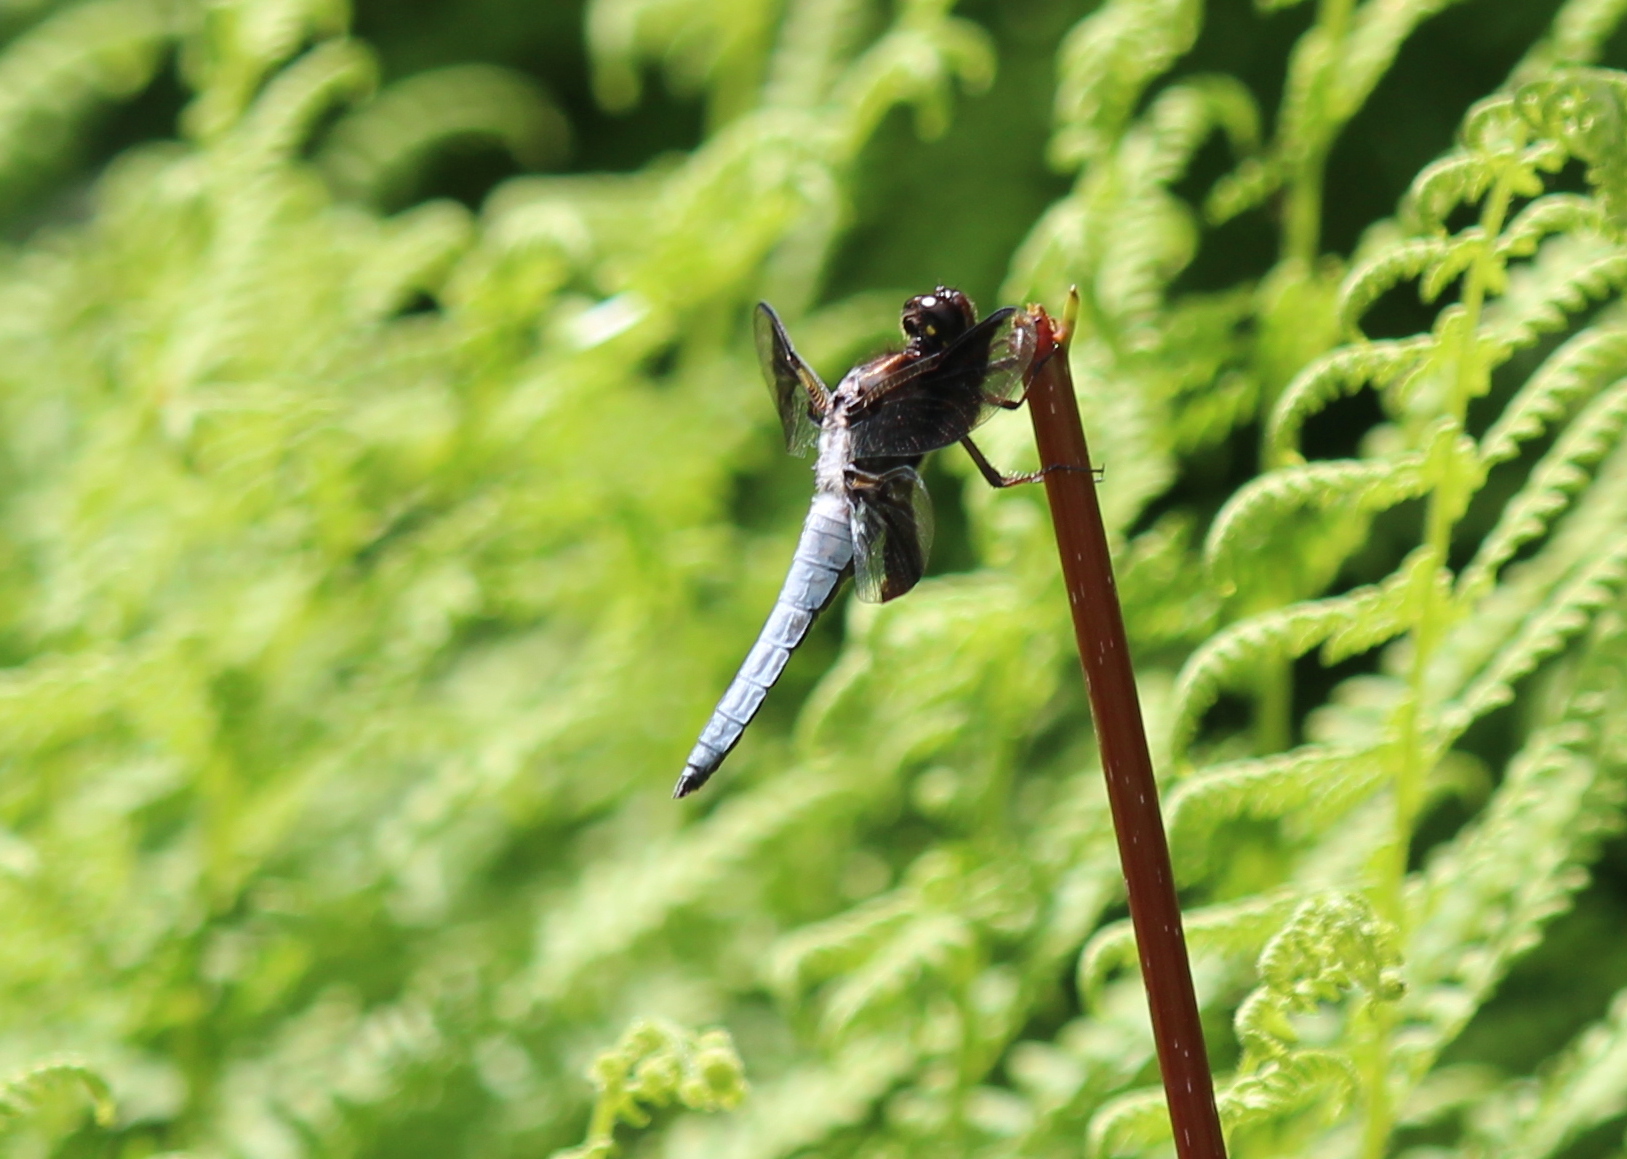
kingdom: Animalia
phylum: Arthropoda
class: Insecta
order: Odonata
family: Libellulidae
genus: Plathemis
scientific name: Plathemis lydia
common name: Common whitetail
